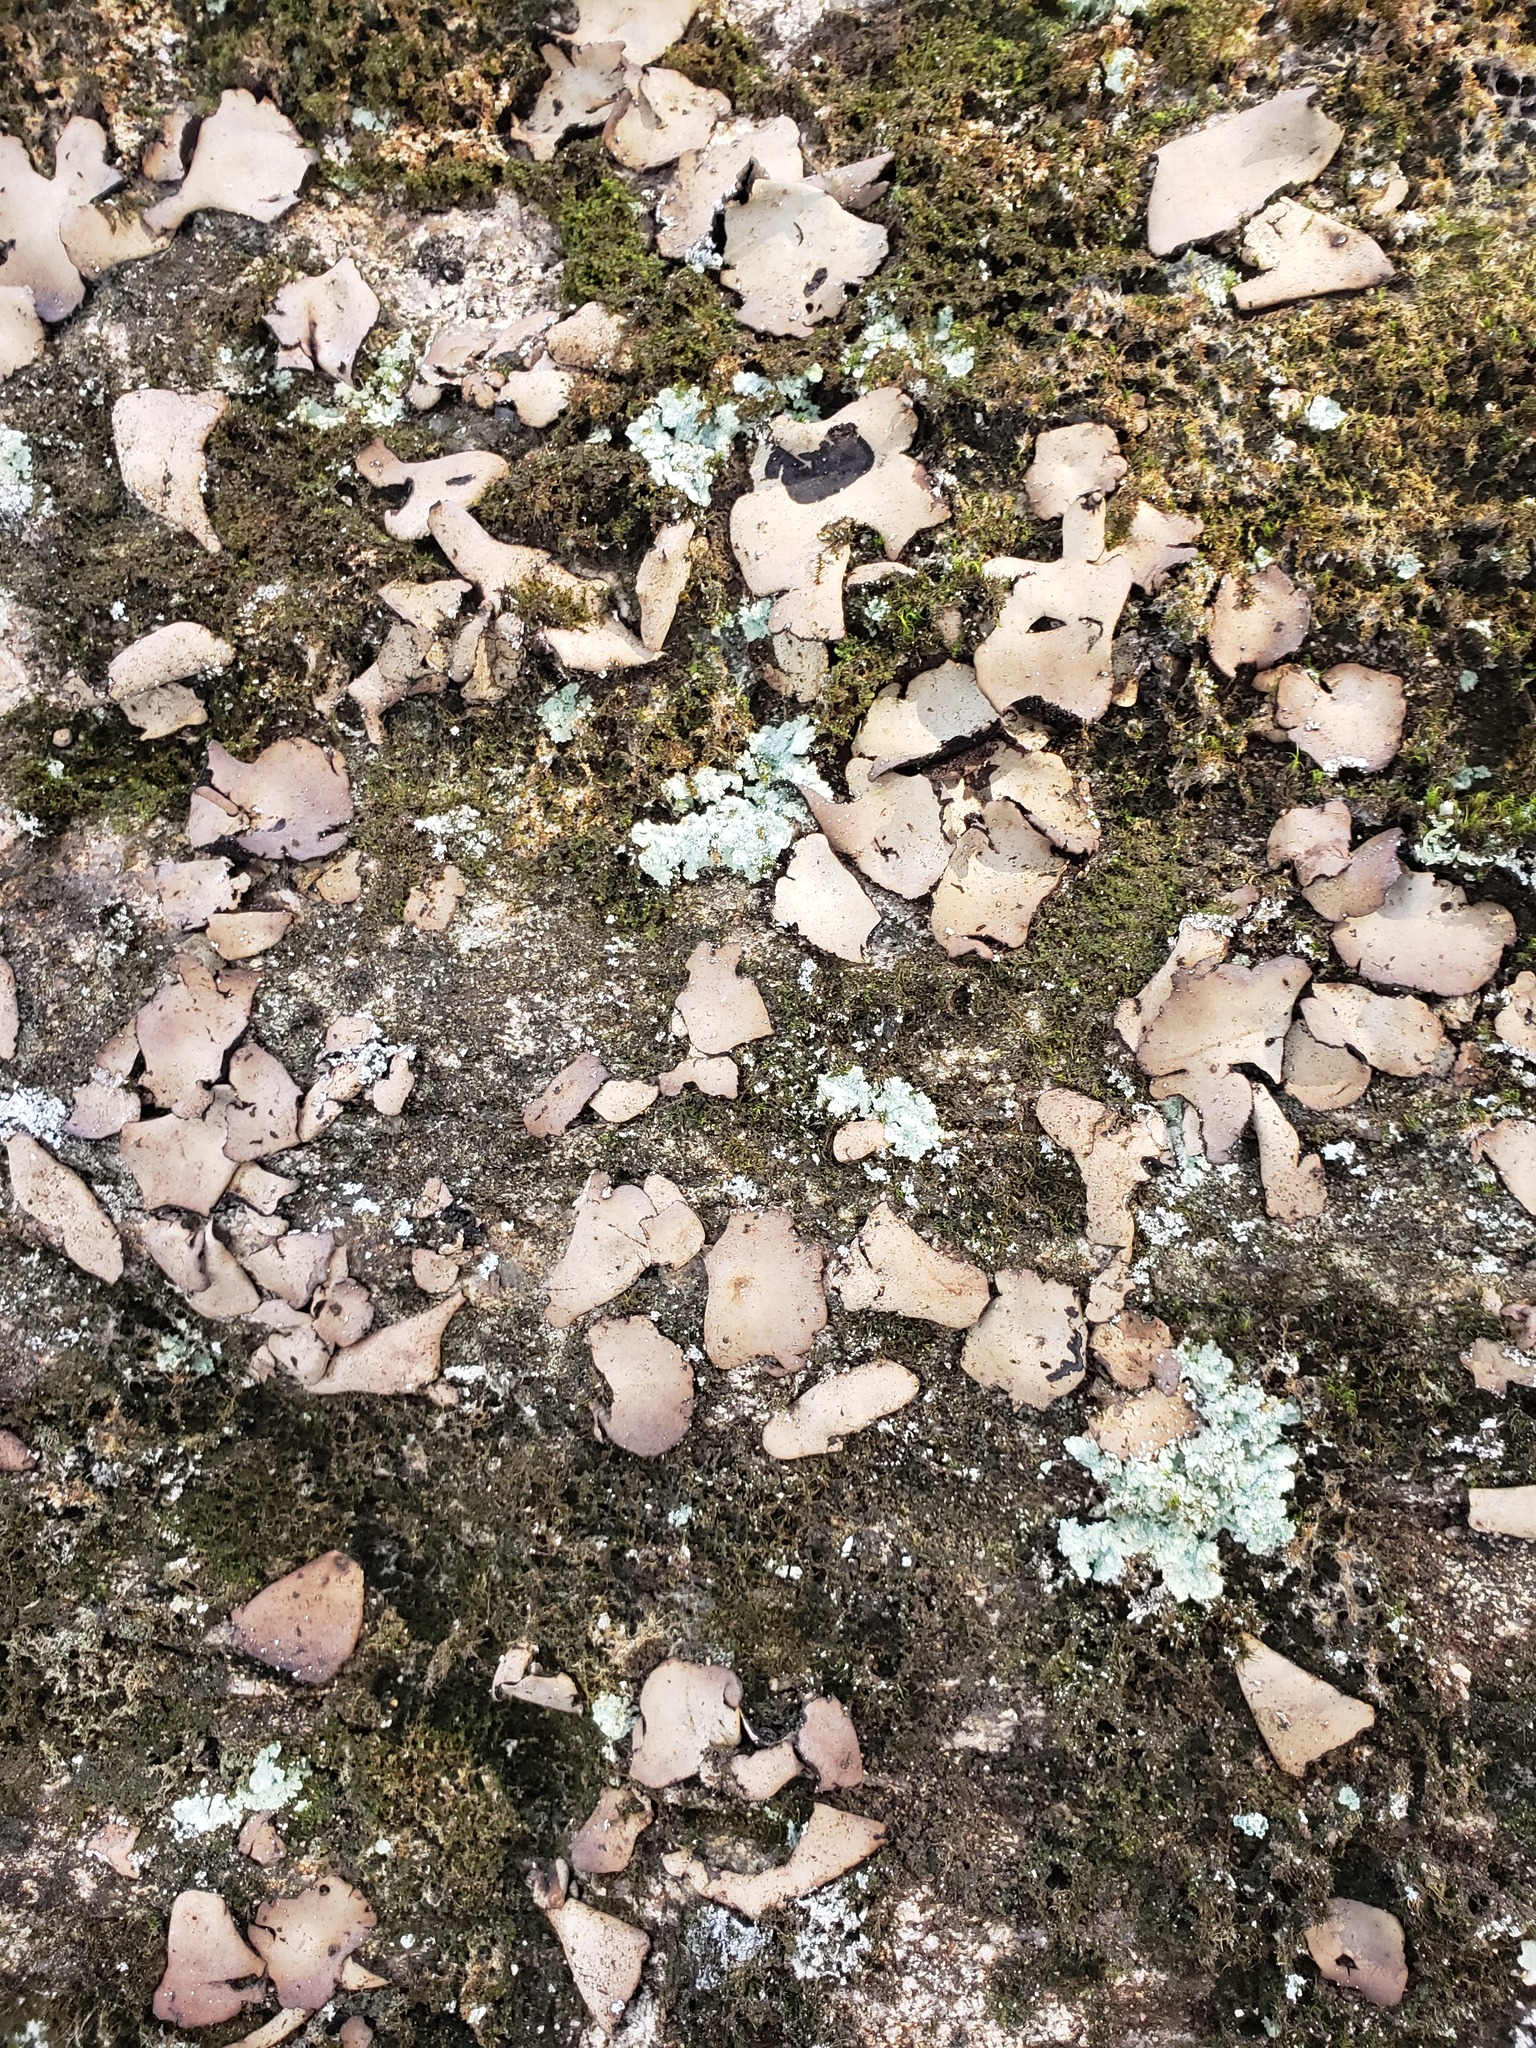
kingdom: Fungi
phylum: Ascomycota
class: Lecanoromycetes
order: Umbilicariales
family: Umbilicariaceae
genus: Umbilicaria
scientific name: Umbilicaria mammulata
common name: Smooth rock tripe
